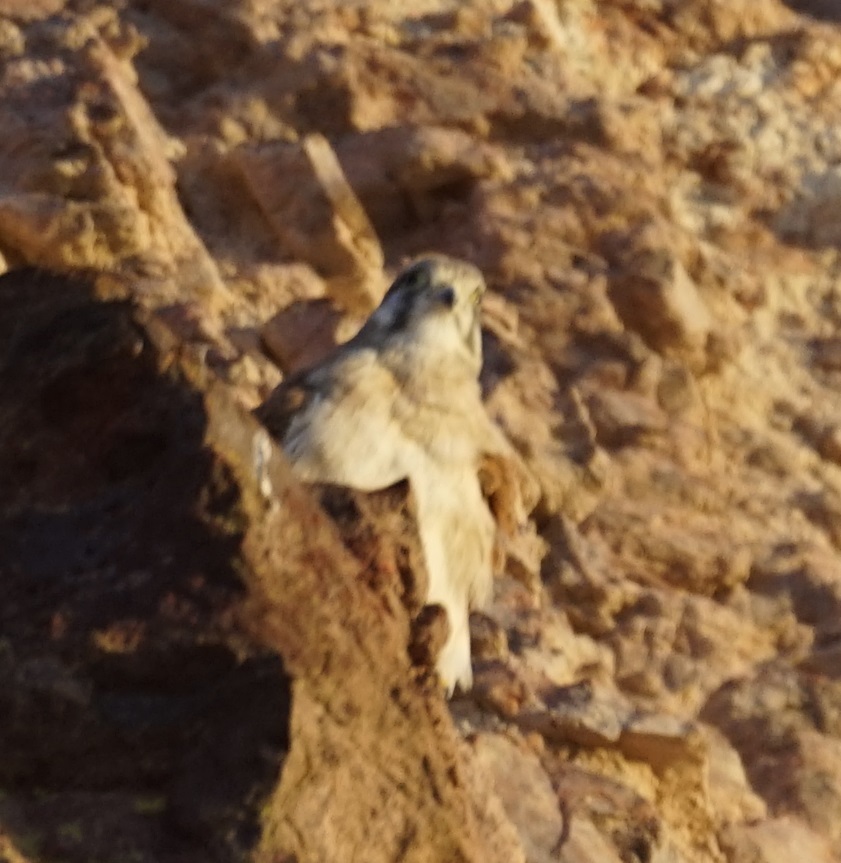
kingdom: Animalia
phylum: Chordata
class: Aves
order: Falconiformes
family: Falconidae
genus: Falco
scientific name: Falco cenchroides
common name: Nankeen kestrel
